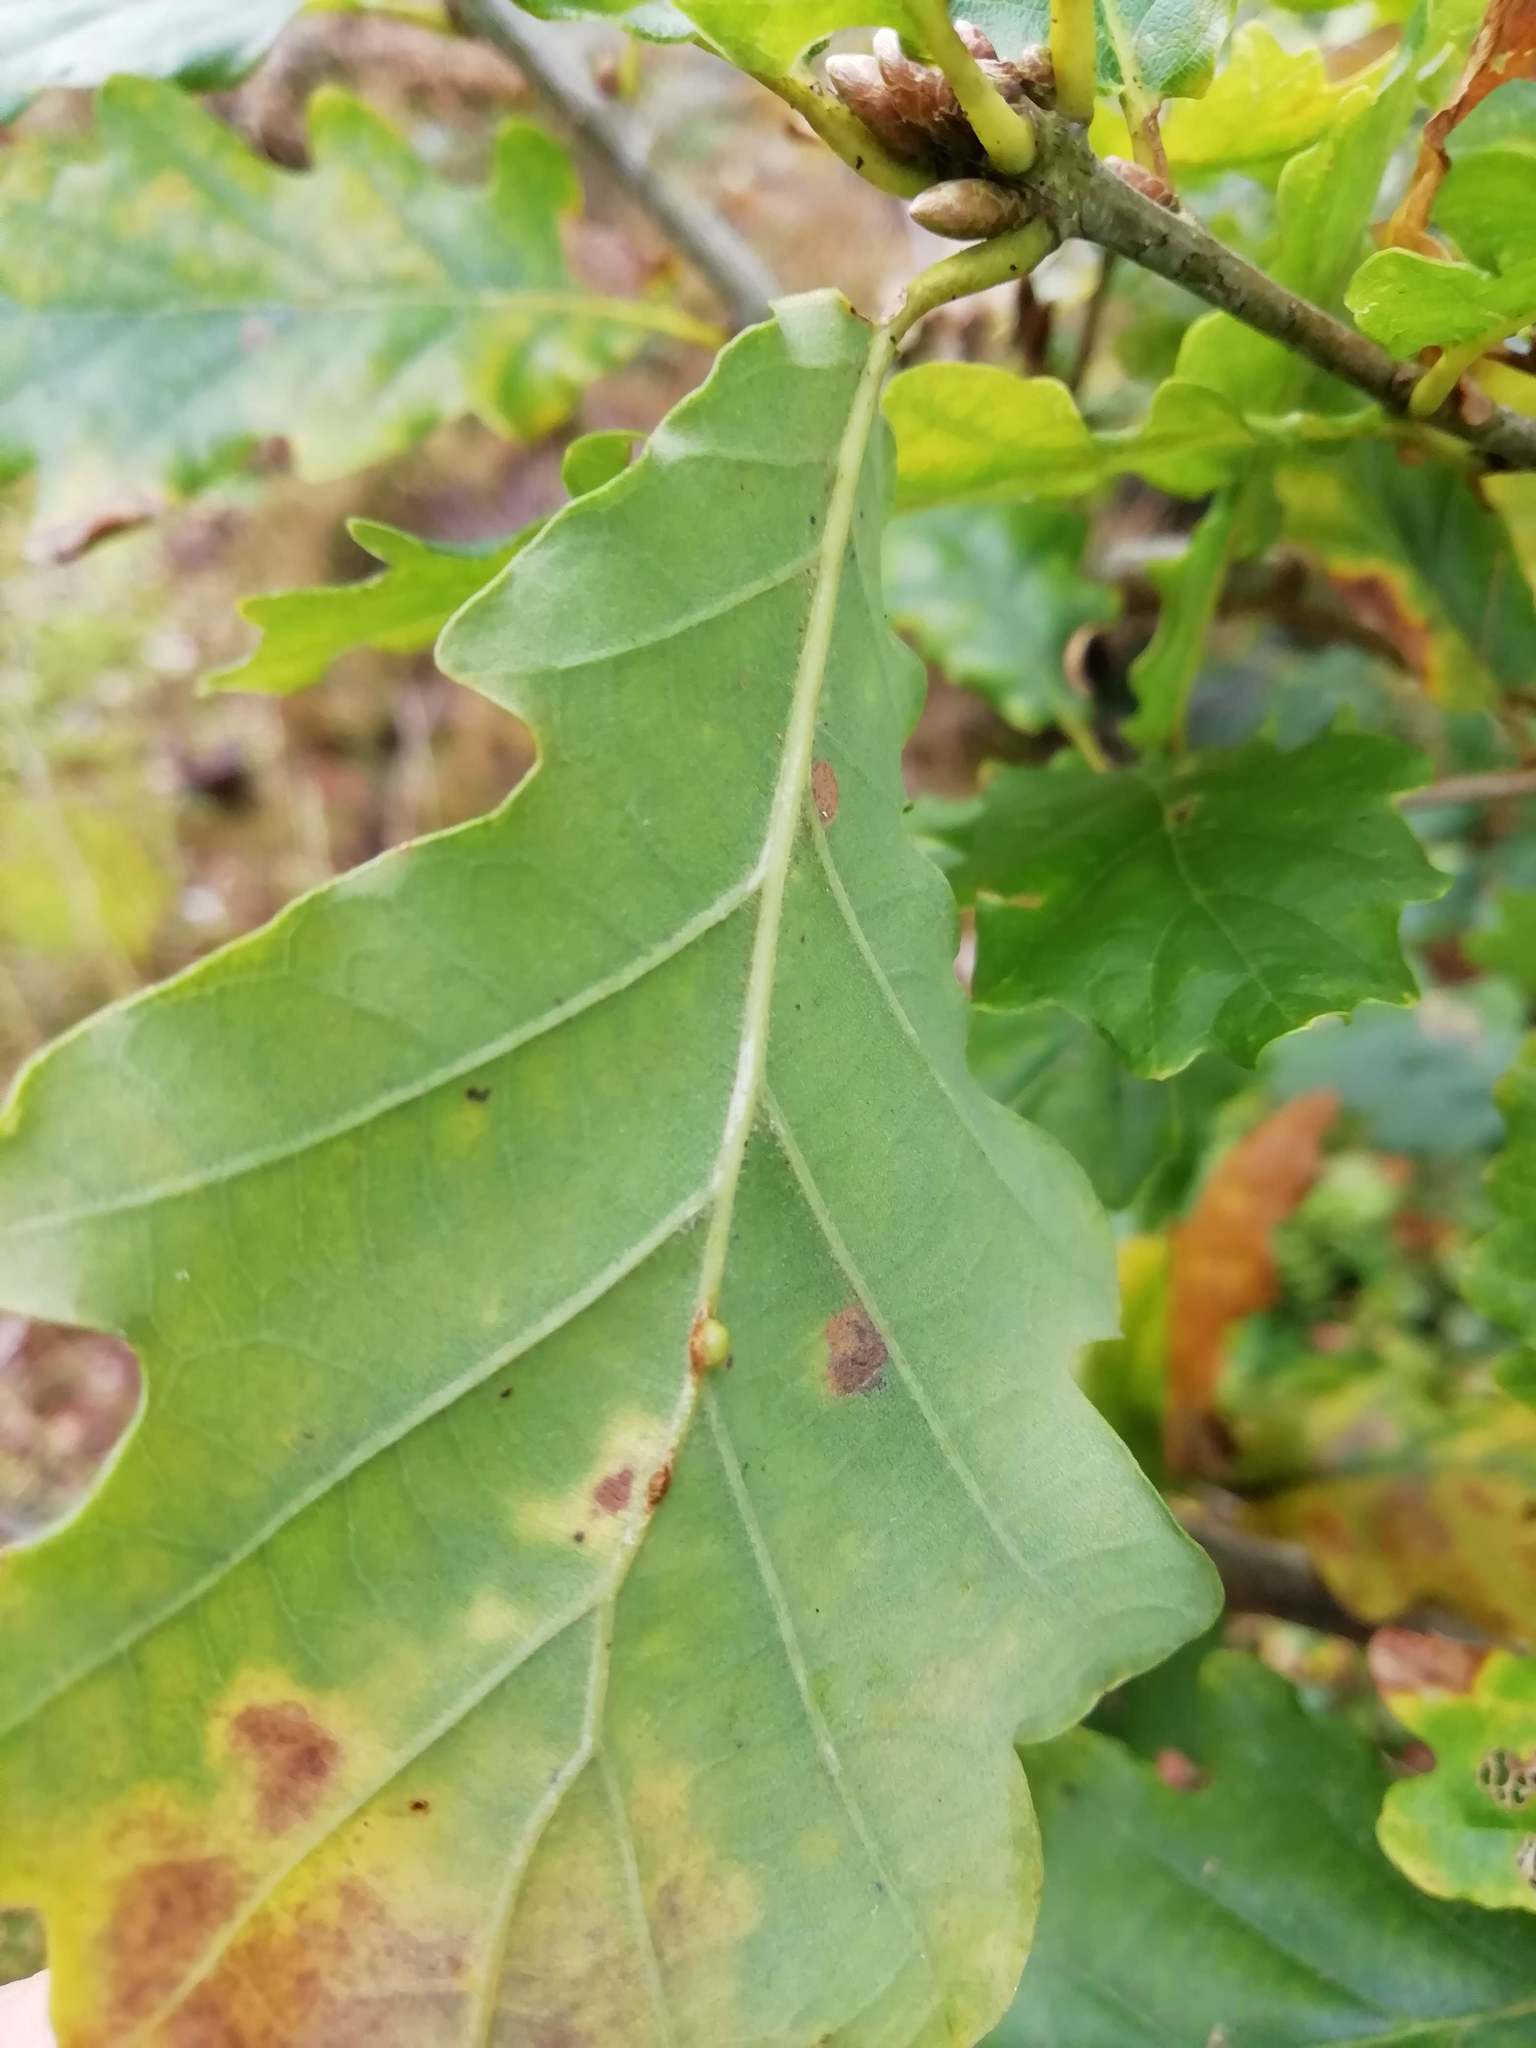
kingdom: Animalia
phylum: Arthropoda
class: Insecta
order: Hymenoptera
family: Cynipidae
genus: Neuroterus
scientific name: Neuroterus anthracinus
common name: Oyster gall
